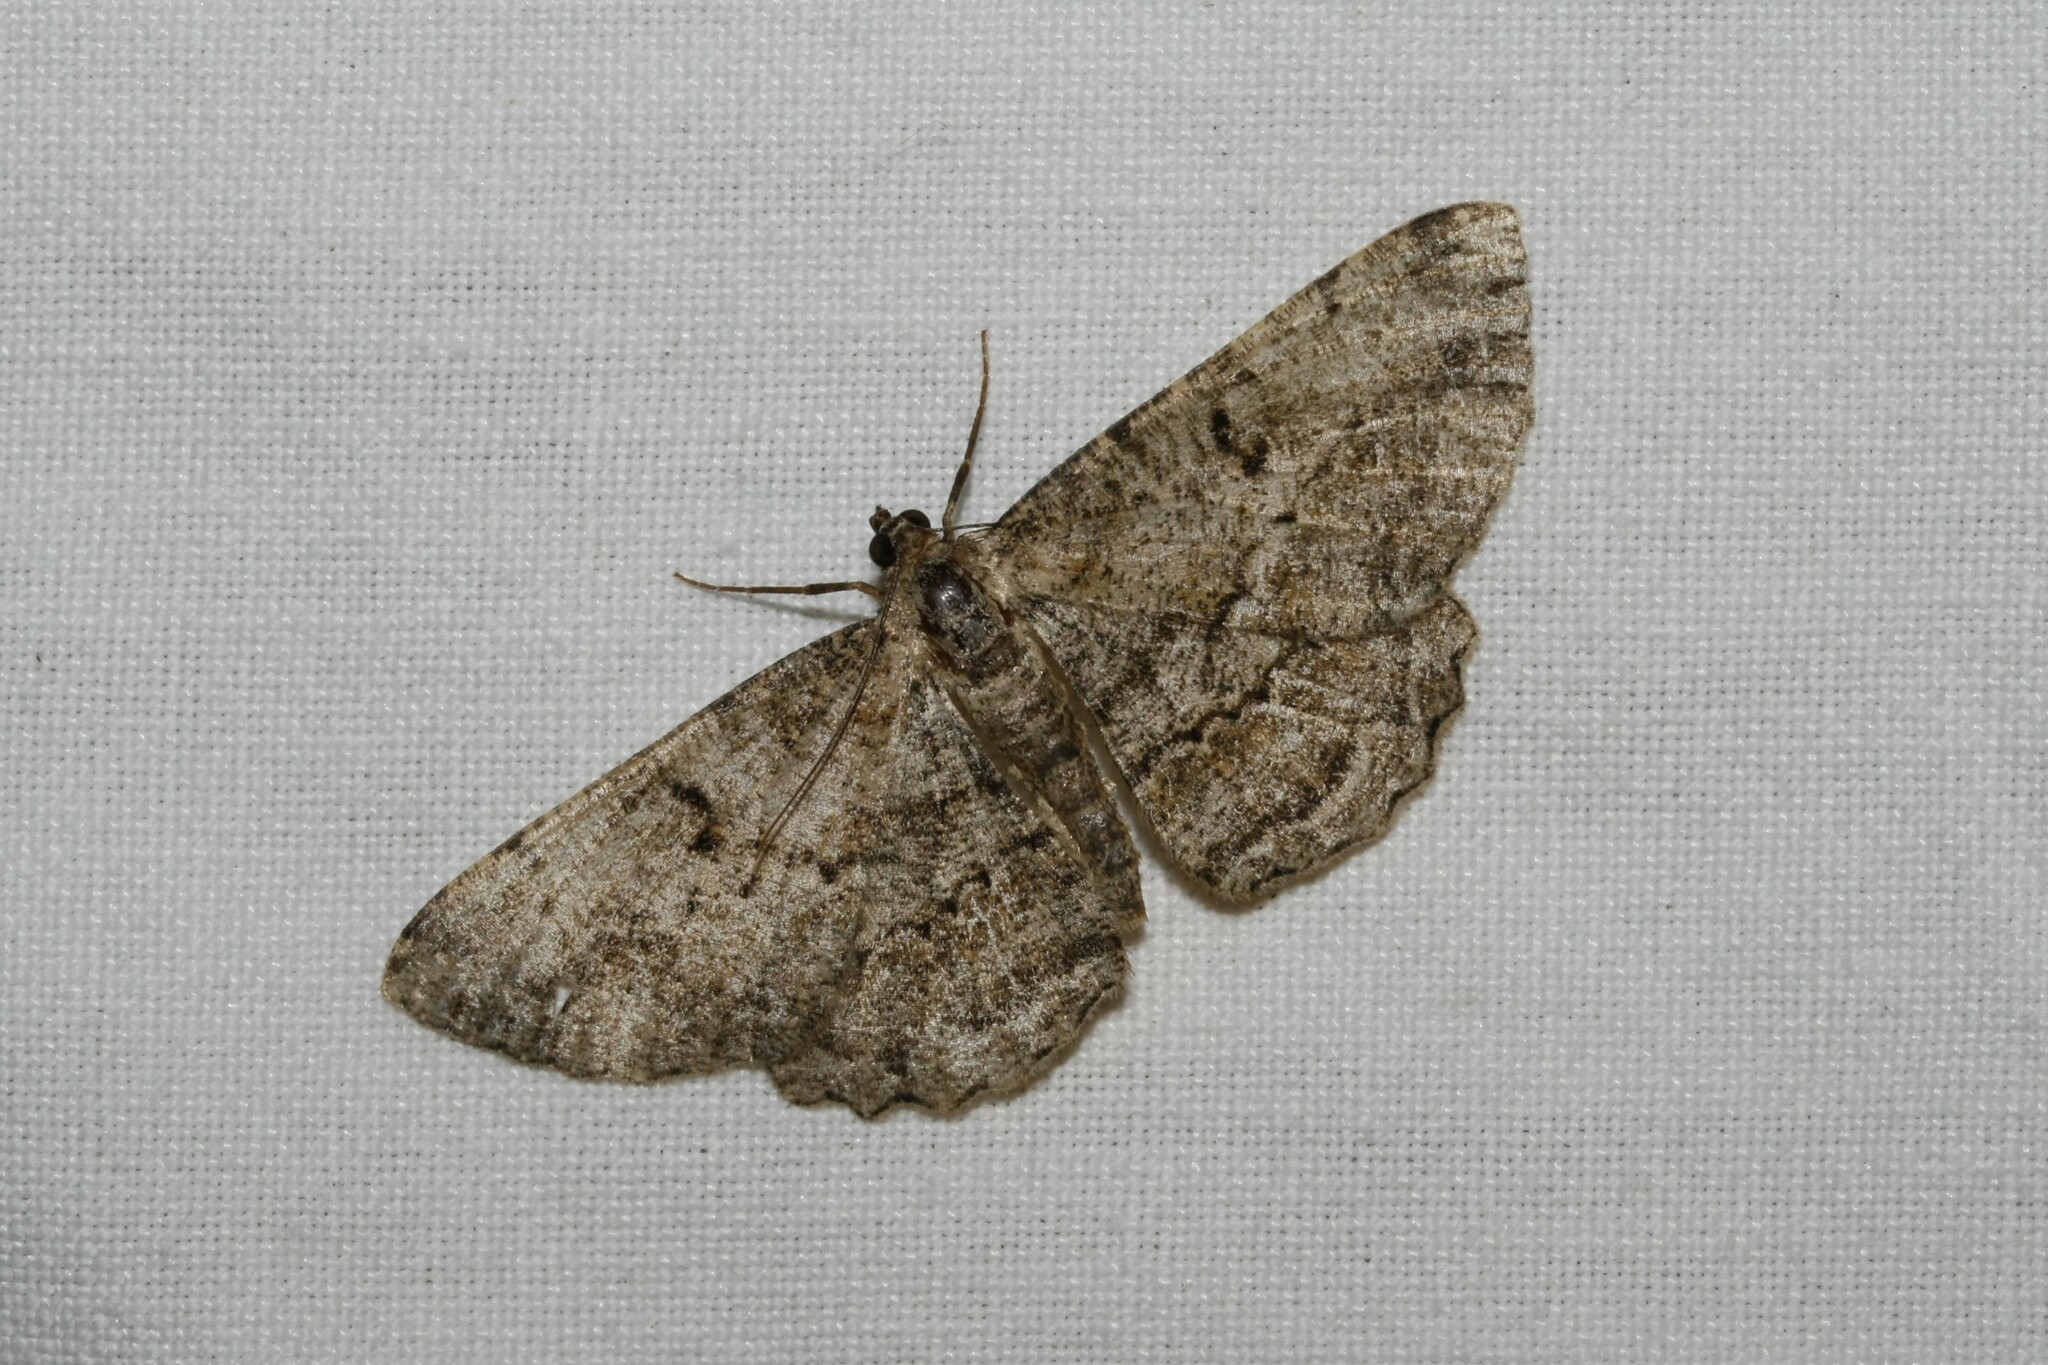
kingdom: Animalia
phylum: Arthropoda
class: Insecta
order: Lepidoptera
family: Geometridae
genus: Peribatodes
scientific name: Peribatodes rhomboidaria
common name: Willow beauty
